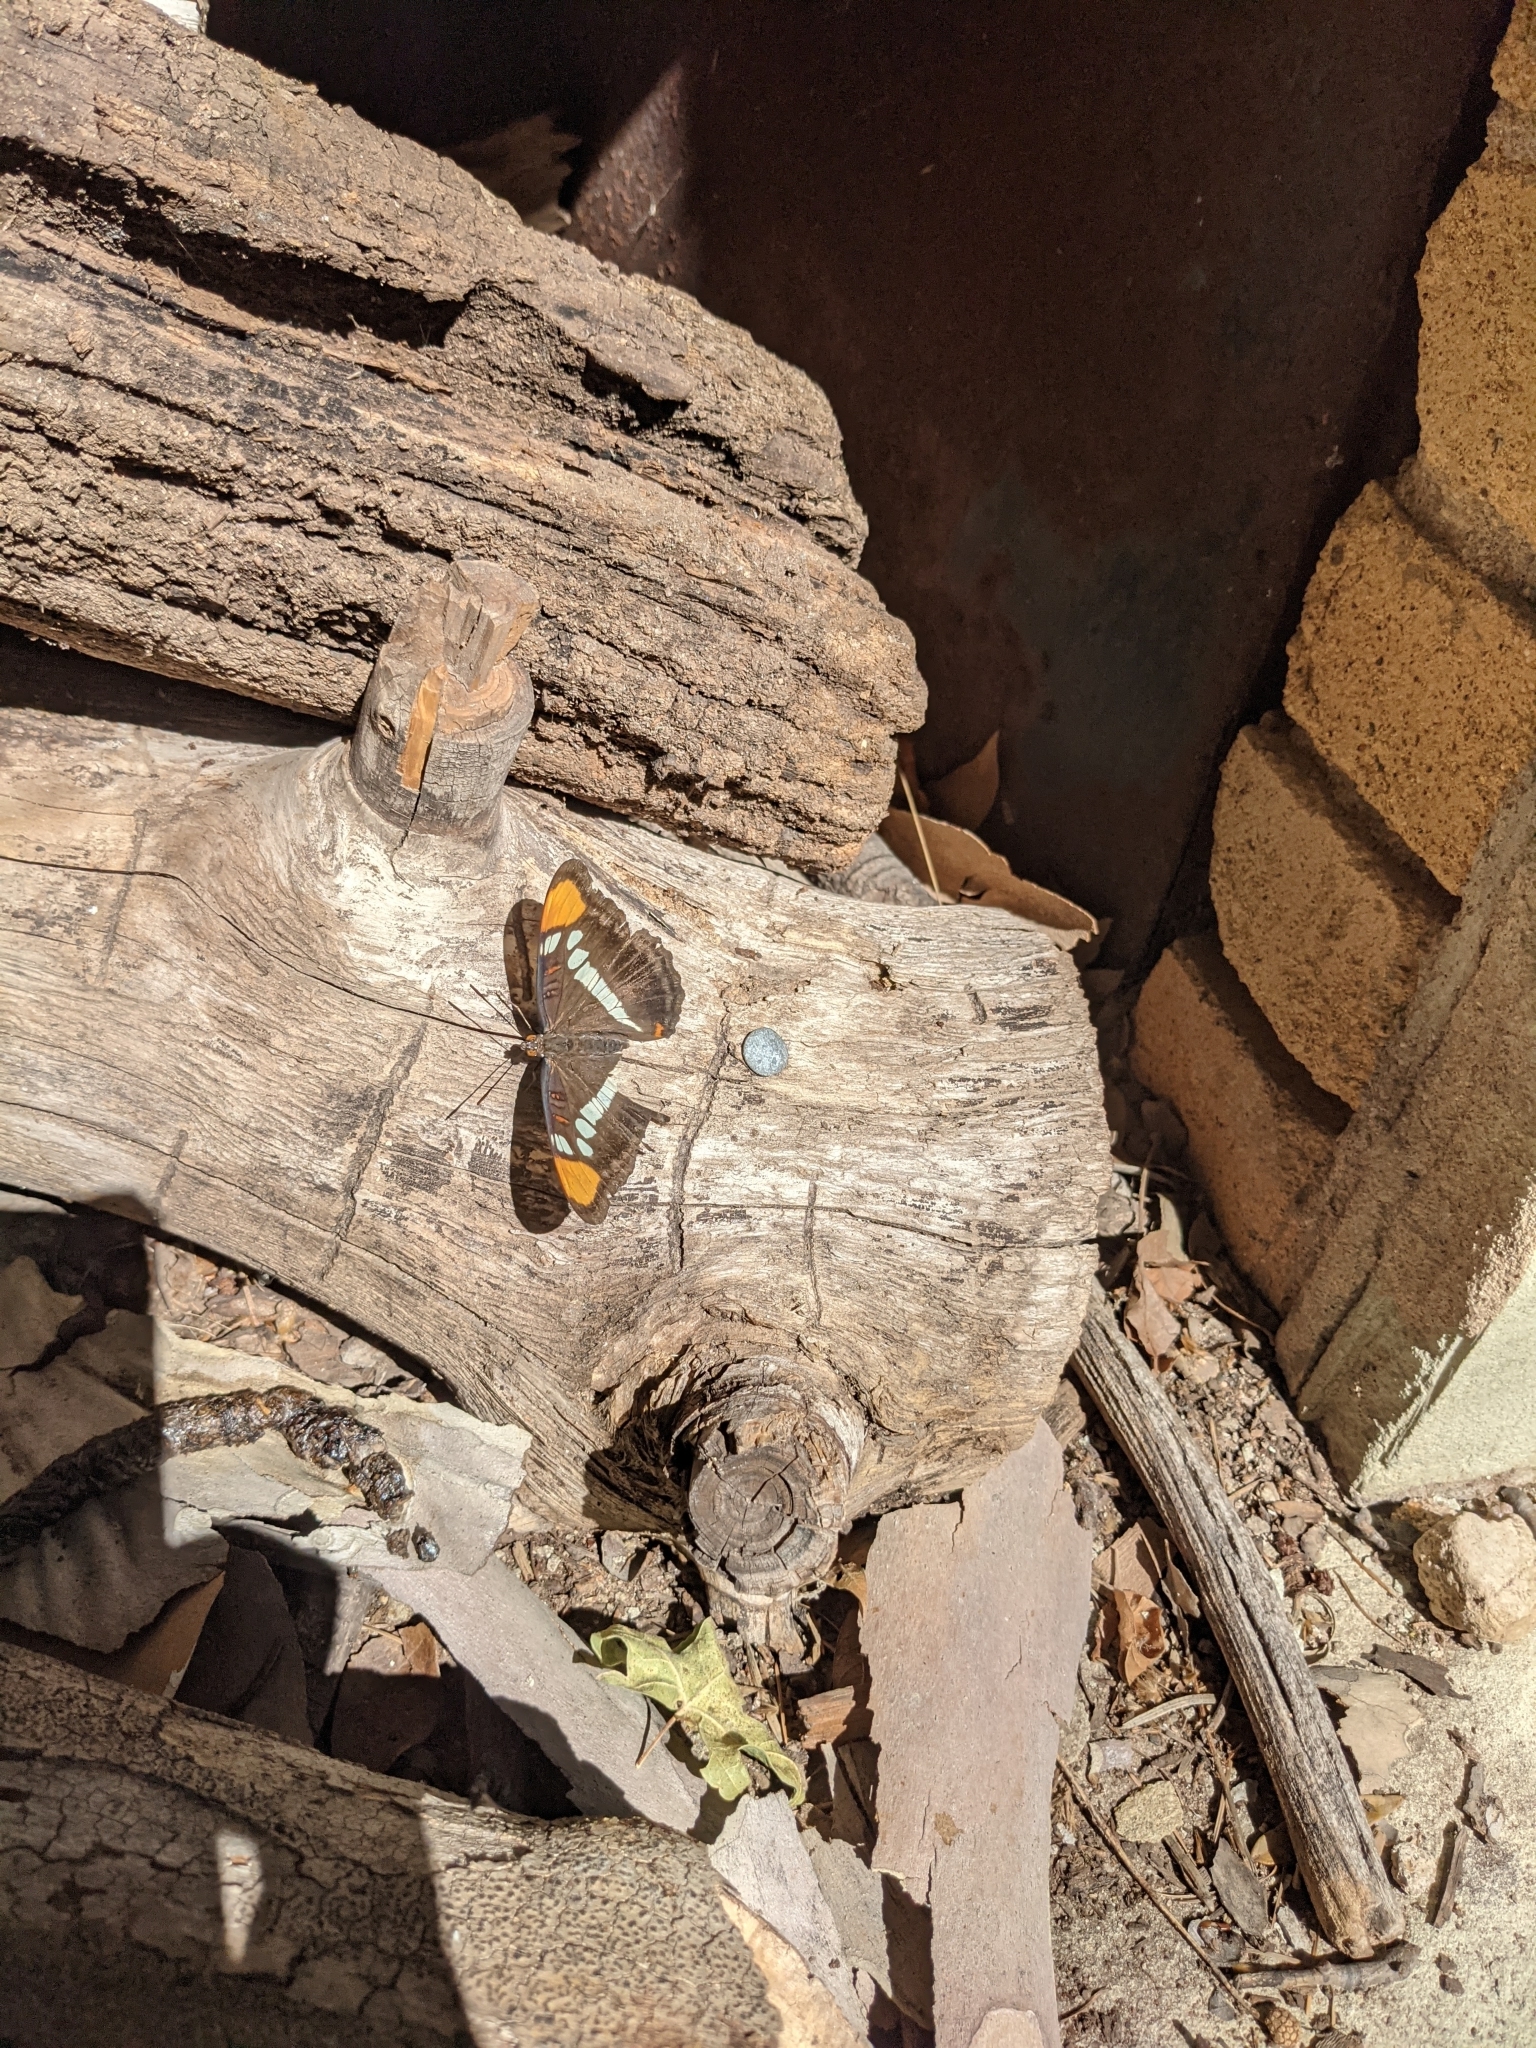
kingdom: Animalia
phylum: Arthropoda
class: Insecta
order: Lepidoptera
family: Nymphalidae
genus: Limenitis
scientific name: Limenitis bredowii
